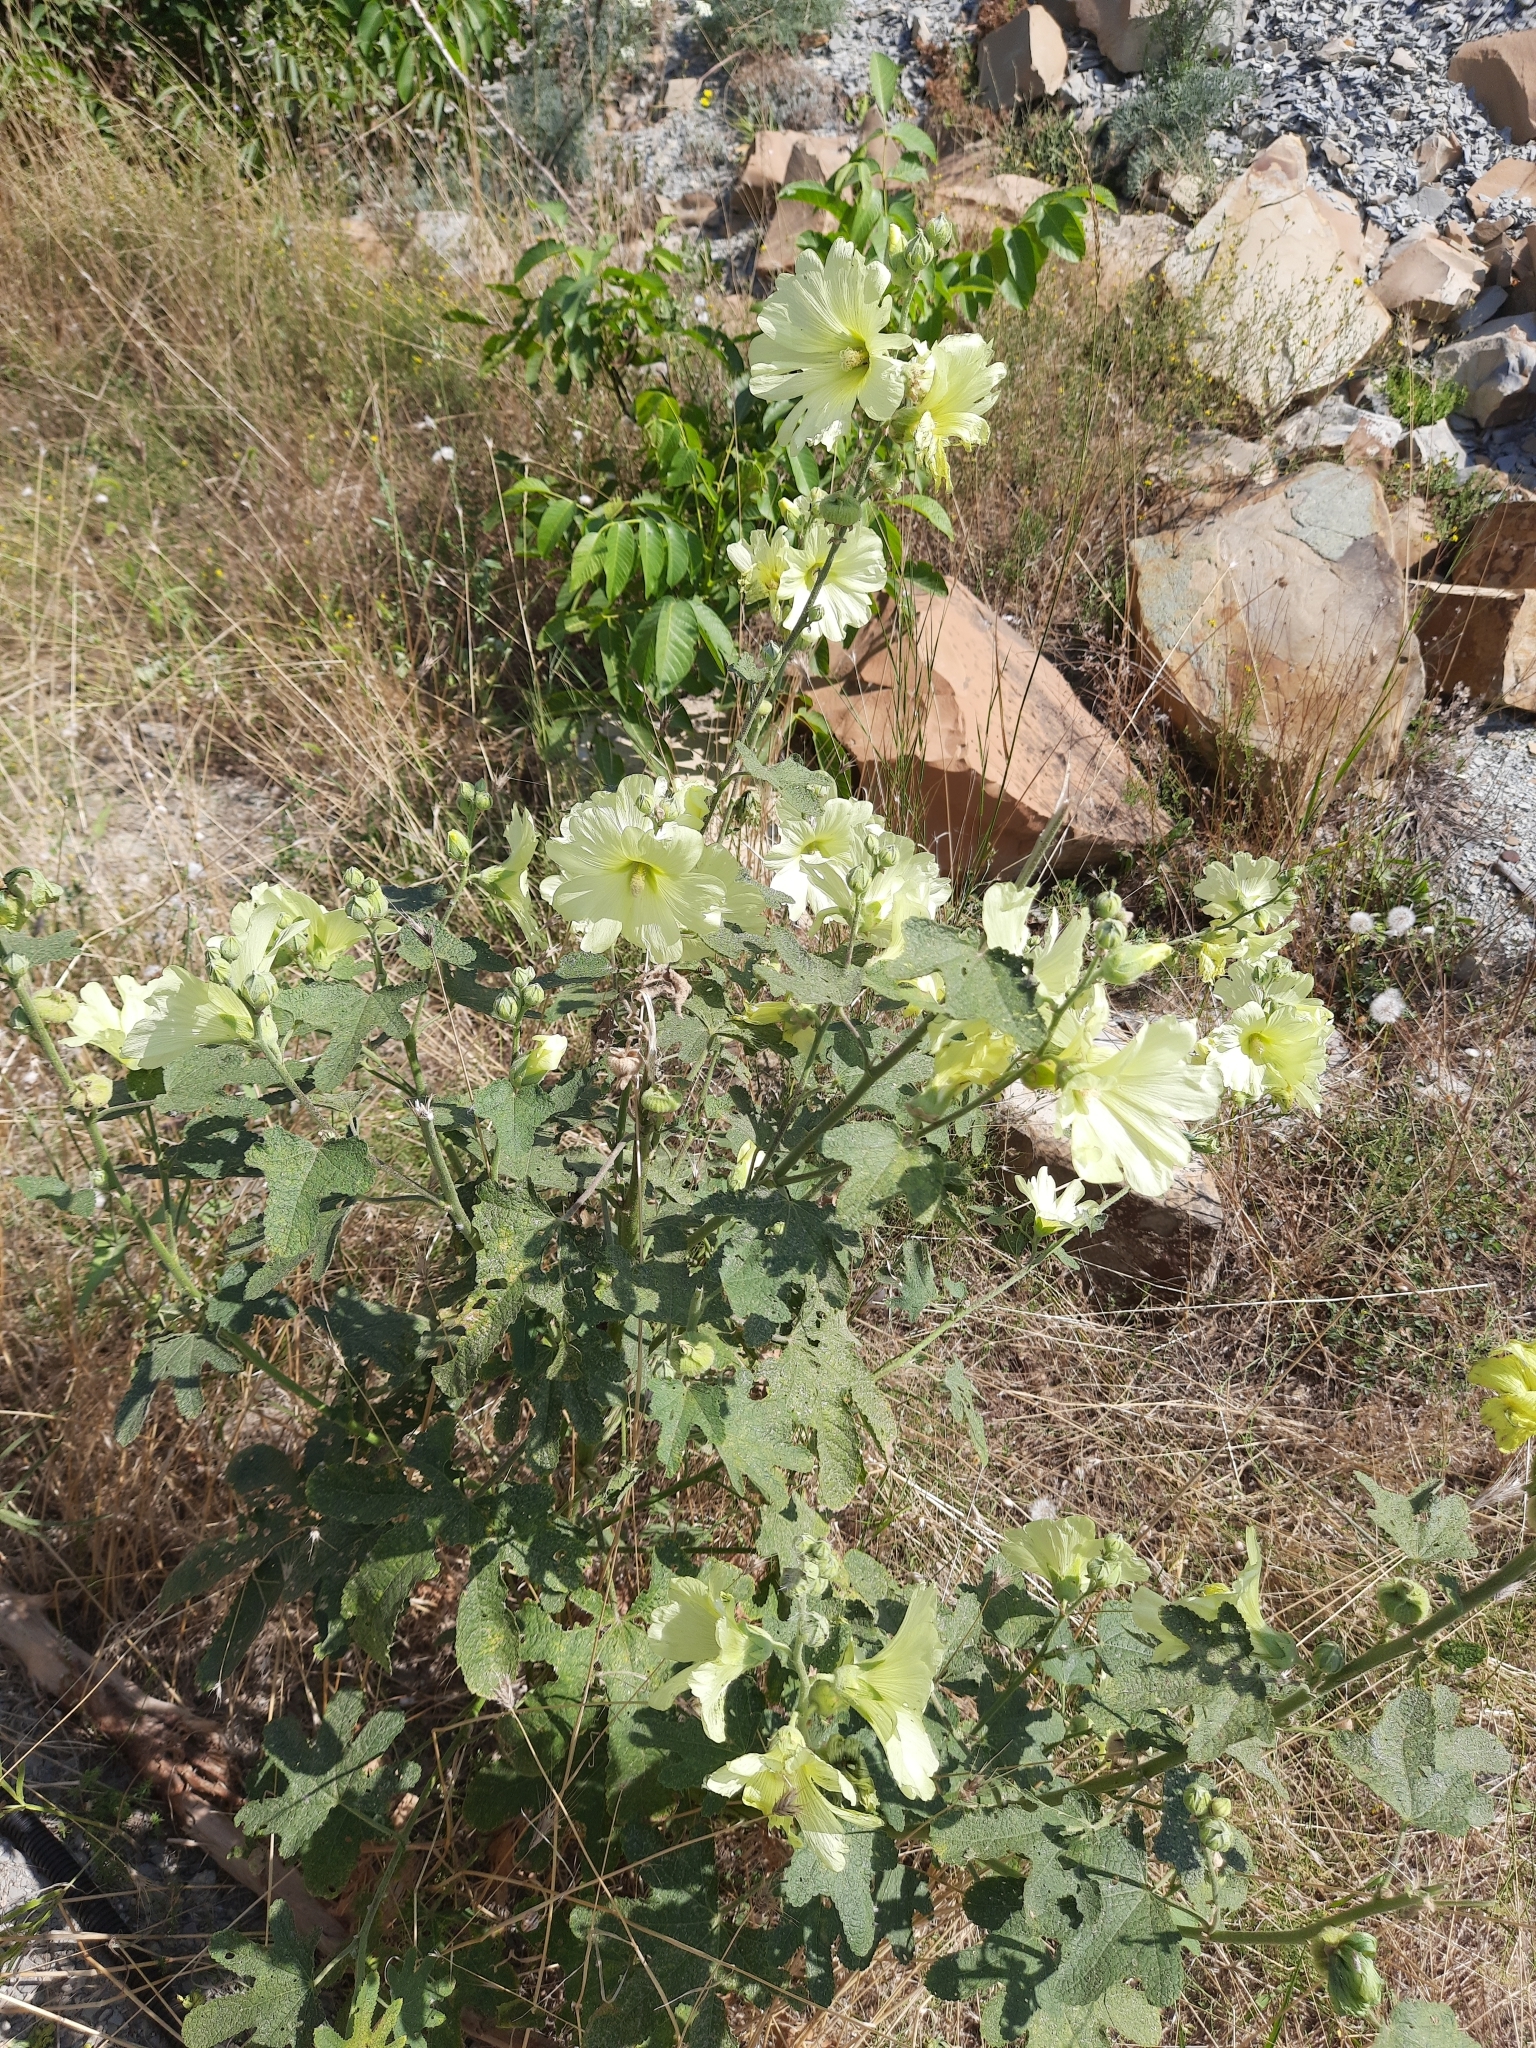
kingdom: Plantae
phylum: Tracheophyta
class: Magnoliopsida
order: Malvales
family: Malvaceae
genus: Alcea
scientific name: Alcea rugosa
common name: Russian hollyhock
